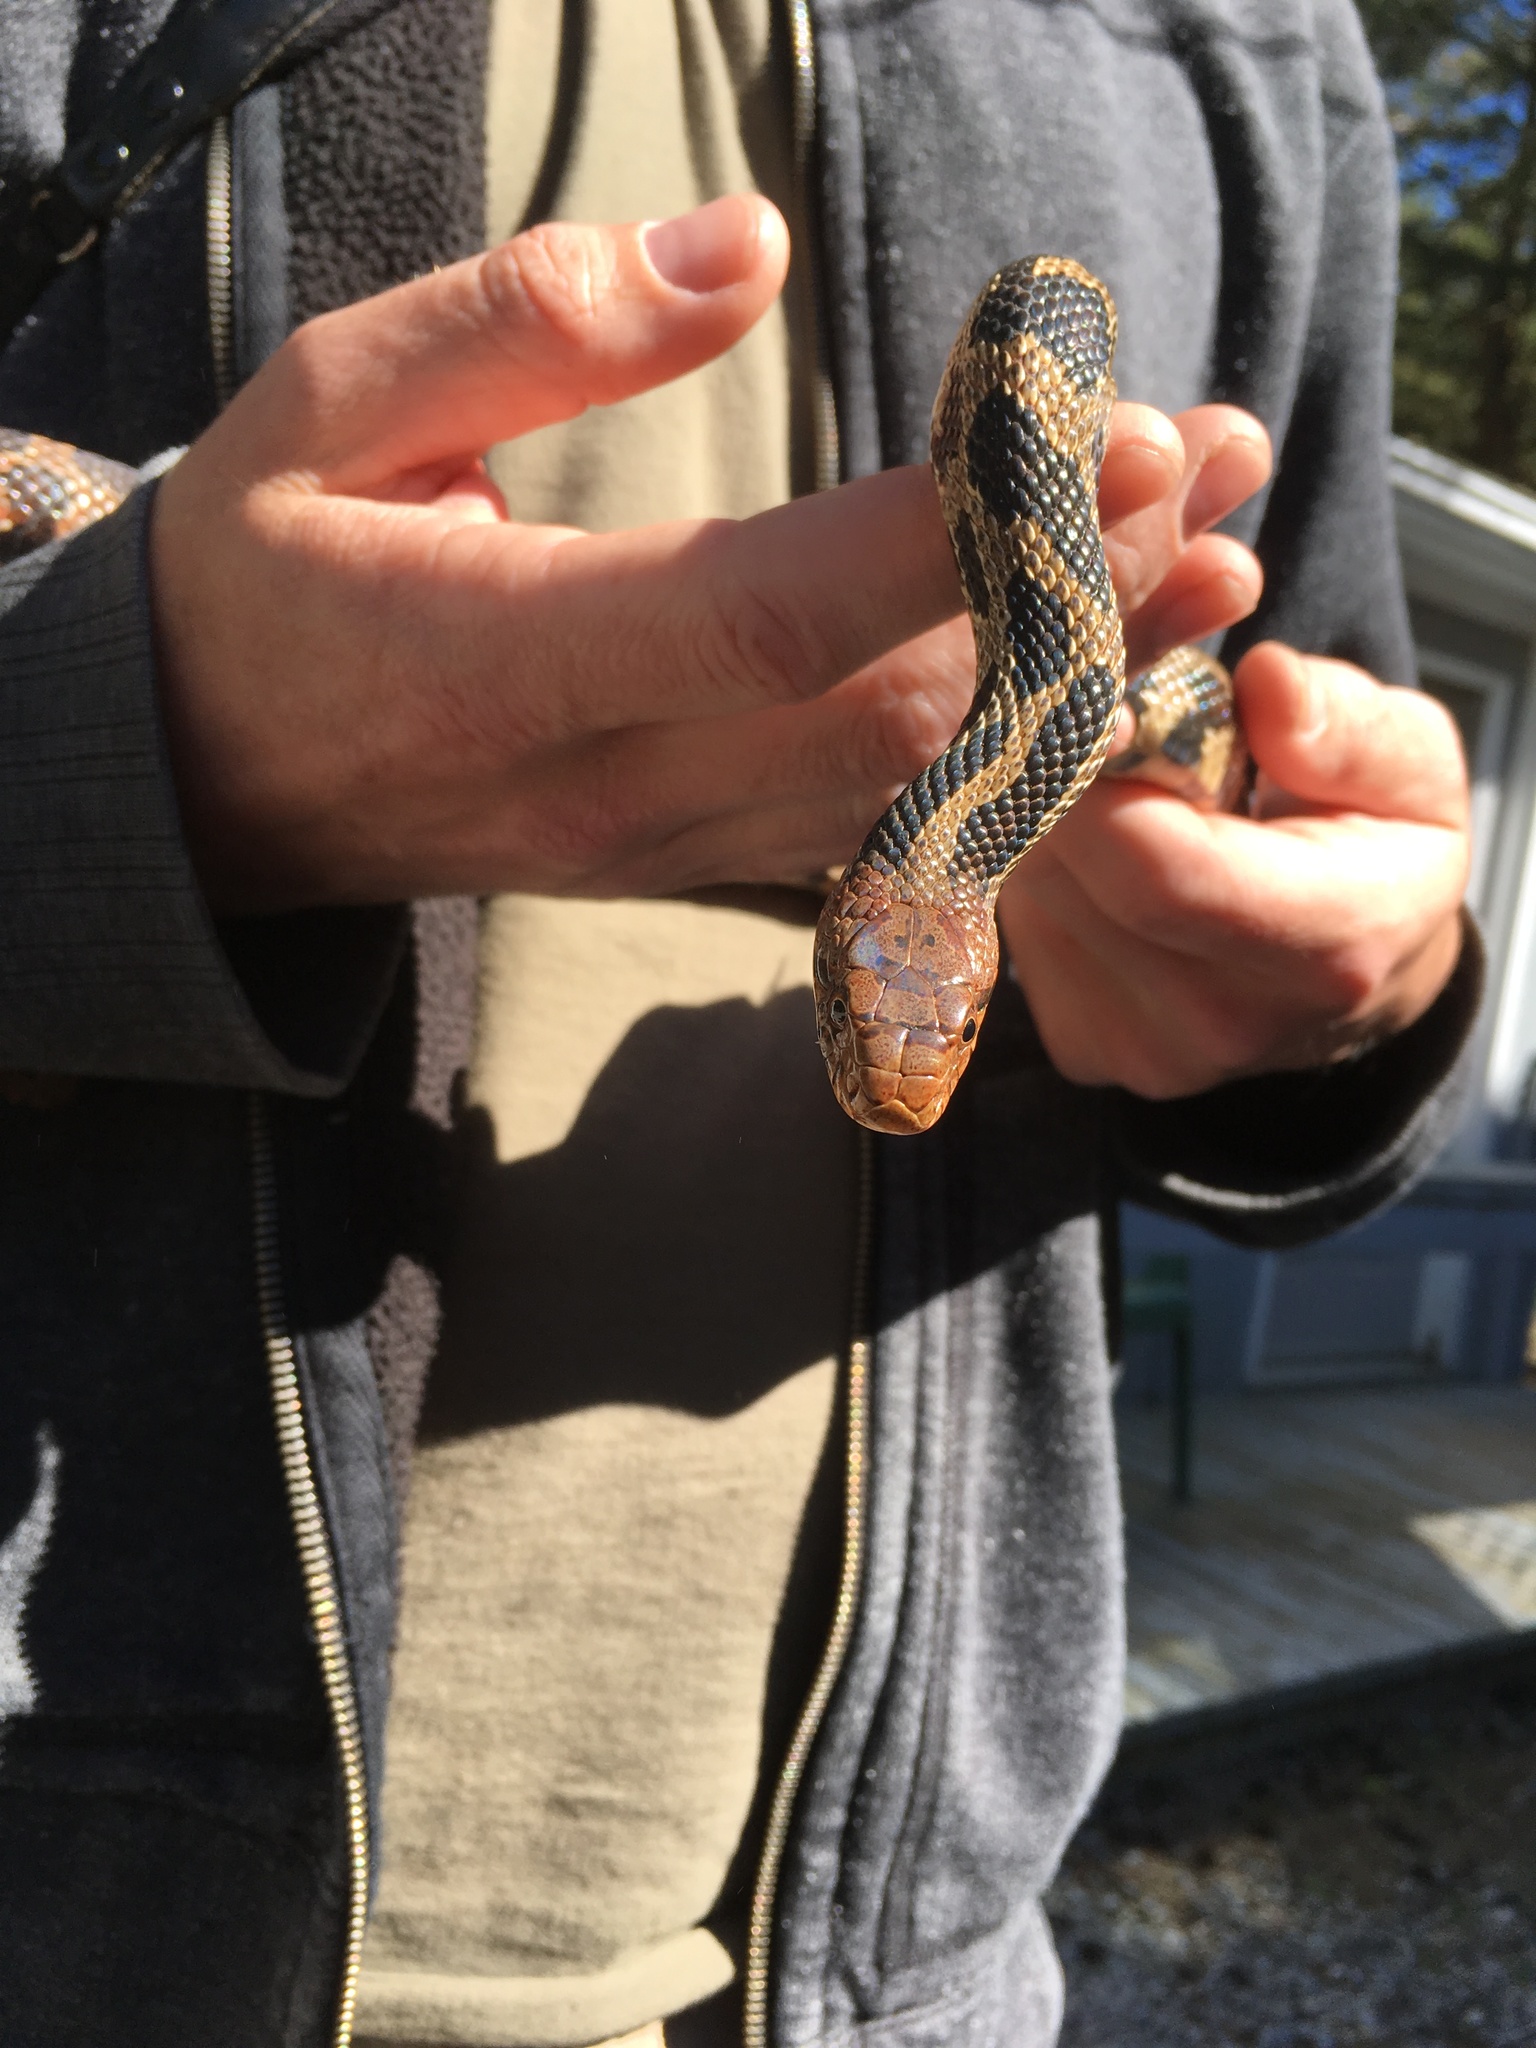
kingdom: Animalia
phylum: Chordata
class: Squamata
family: Colubridae
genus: Pantherophis
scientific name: Pantherophis vulpinus
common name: Eastern fox snake
